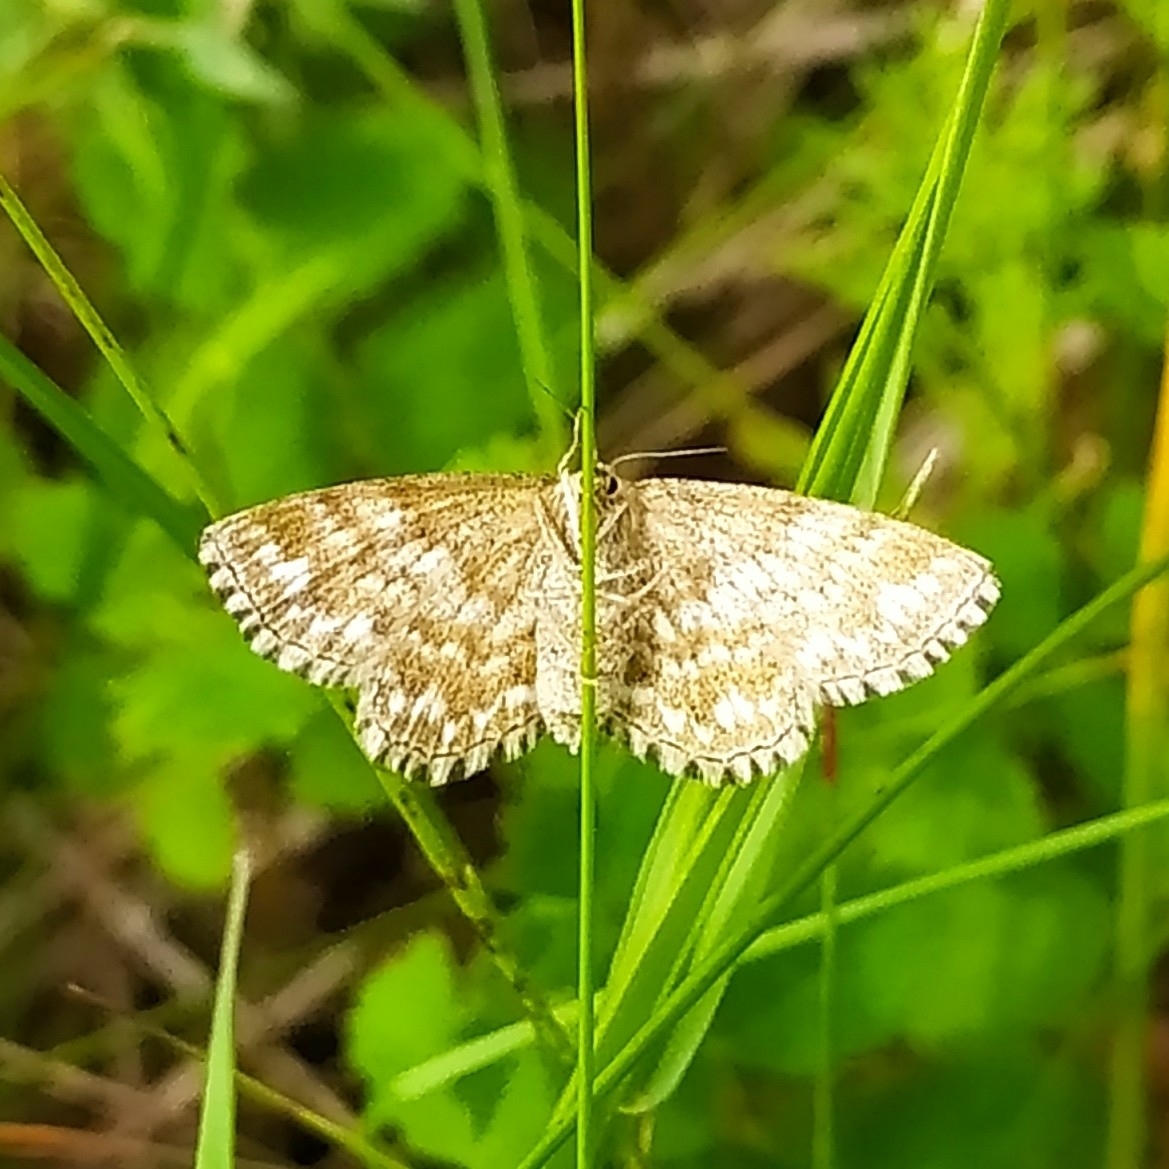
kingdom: Animalia
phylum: Arthropoda
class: Insecta
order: Lepidoptera
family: Geometridae
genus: Scopula
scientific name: Scopula immorata
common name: Lewes wave
